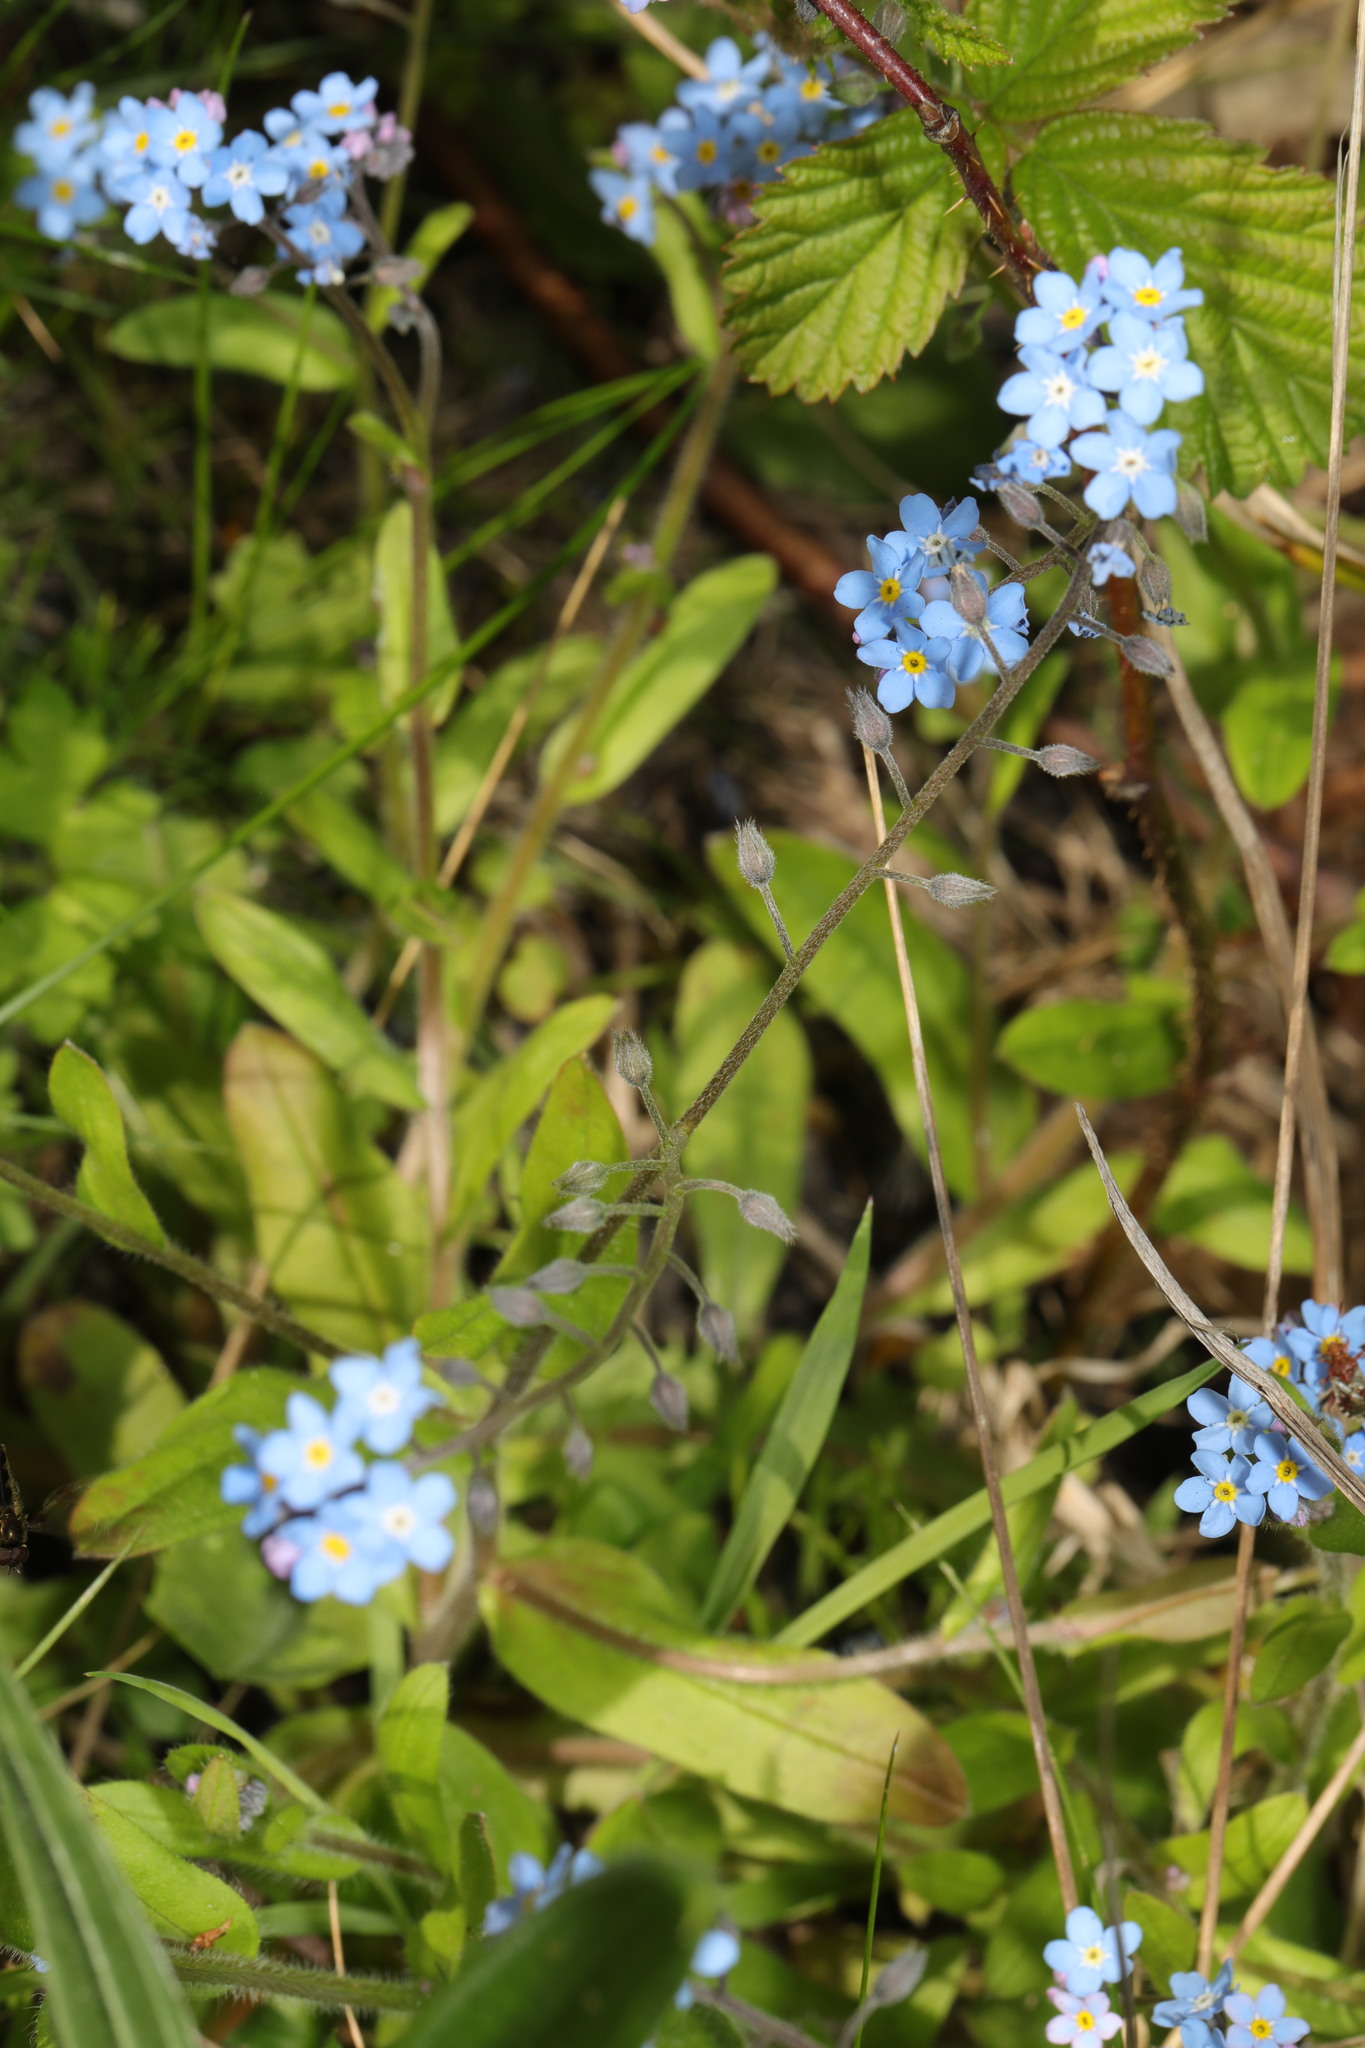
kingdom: Plantae
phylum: Tracheophyta
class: Magnoliopsida
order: Boraginales
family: Boraginaceae
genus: Myosotis
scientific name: Myosotis sylvatica
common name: Wood forget-me-not
